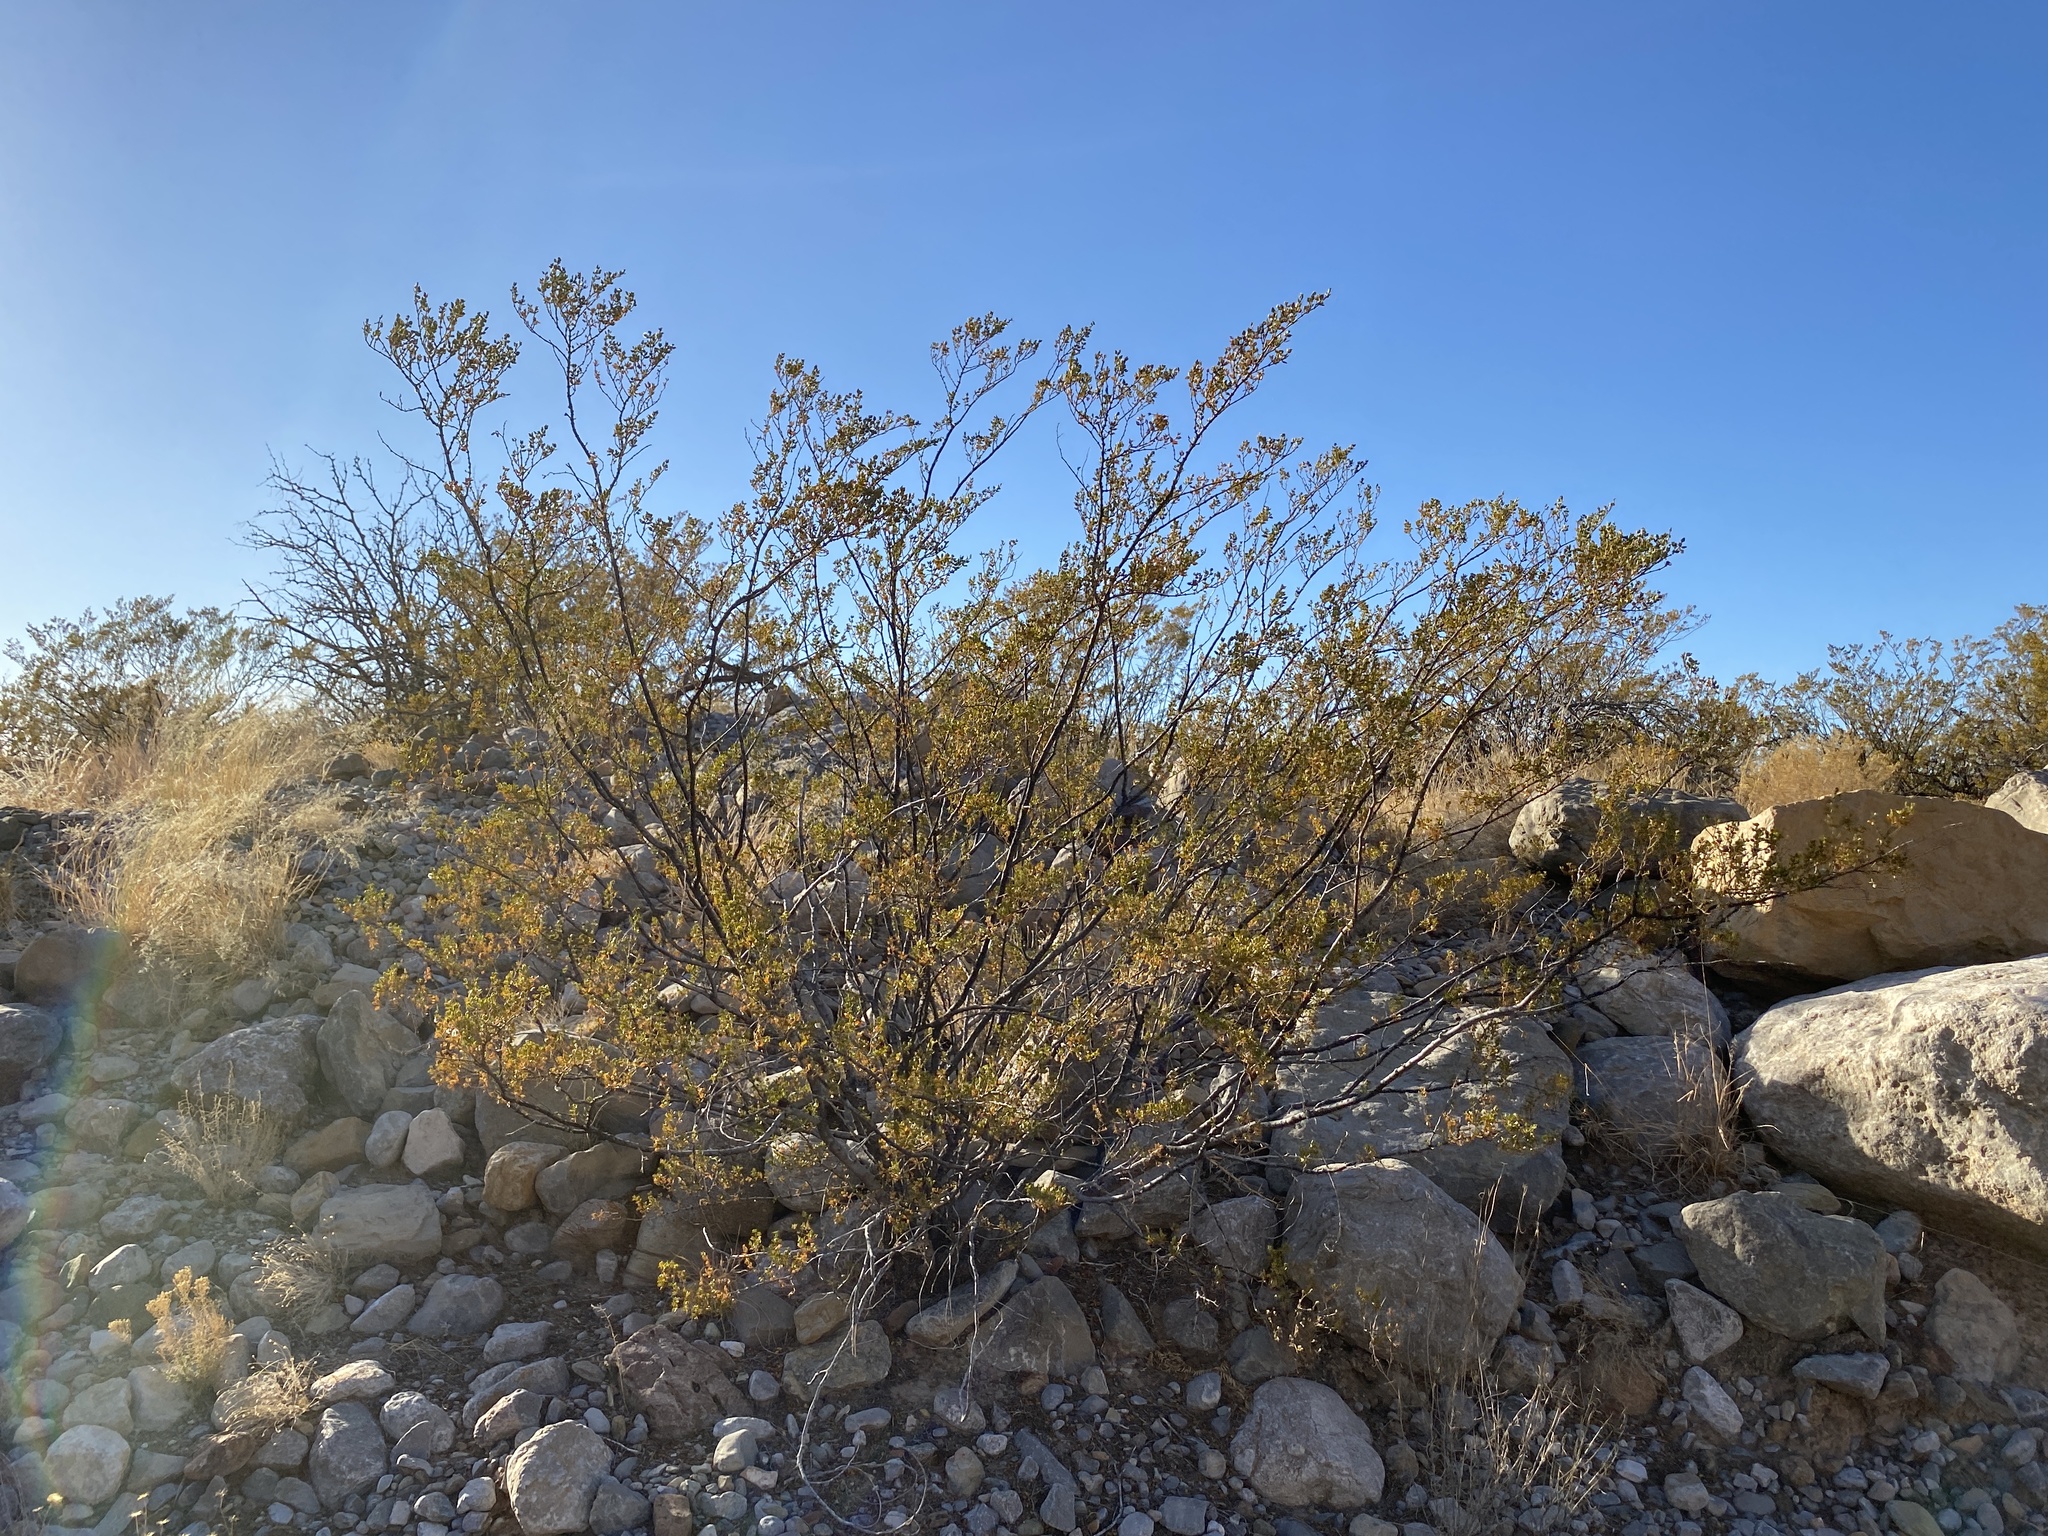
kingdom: Plantae
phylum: Tracheophyta
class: Magnoliopsida
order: Zygophyllales
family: Zygophyllaceae
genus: Larrea
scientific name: Larrea tridentata
